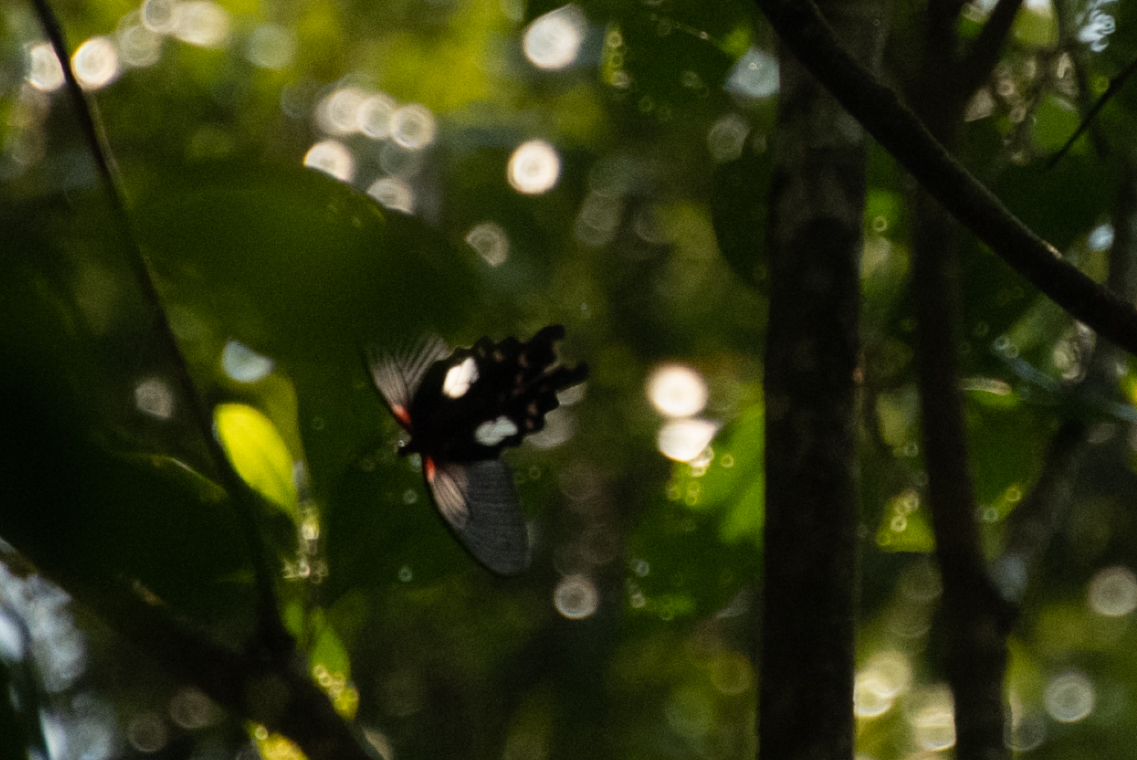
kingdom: Animalia
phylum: Arthropoda
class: Insecta
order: Lepidoptera
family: Papilionidae
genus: Papilio
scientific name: Papilio memnon
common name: Great mormon
